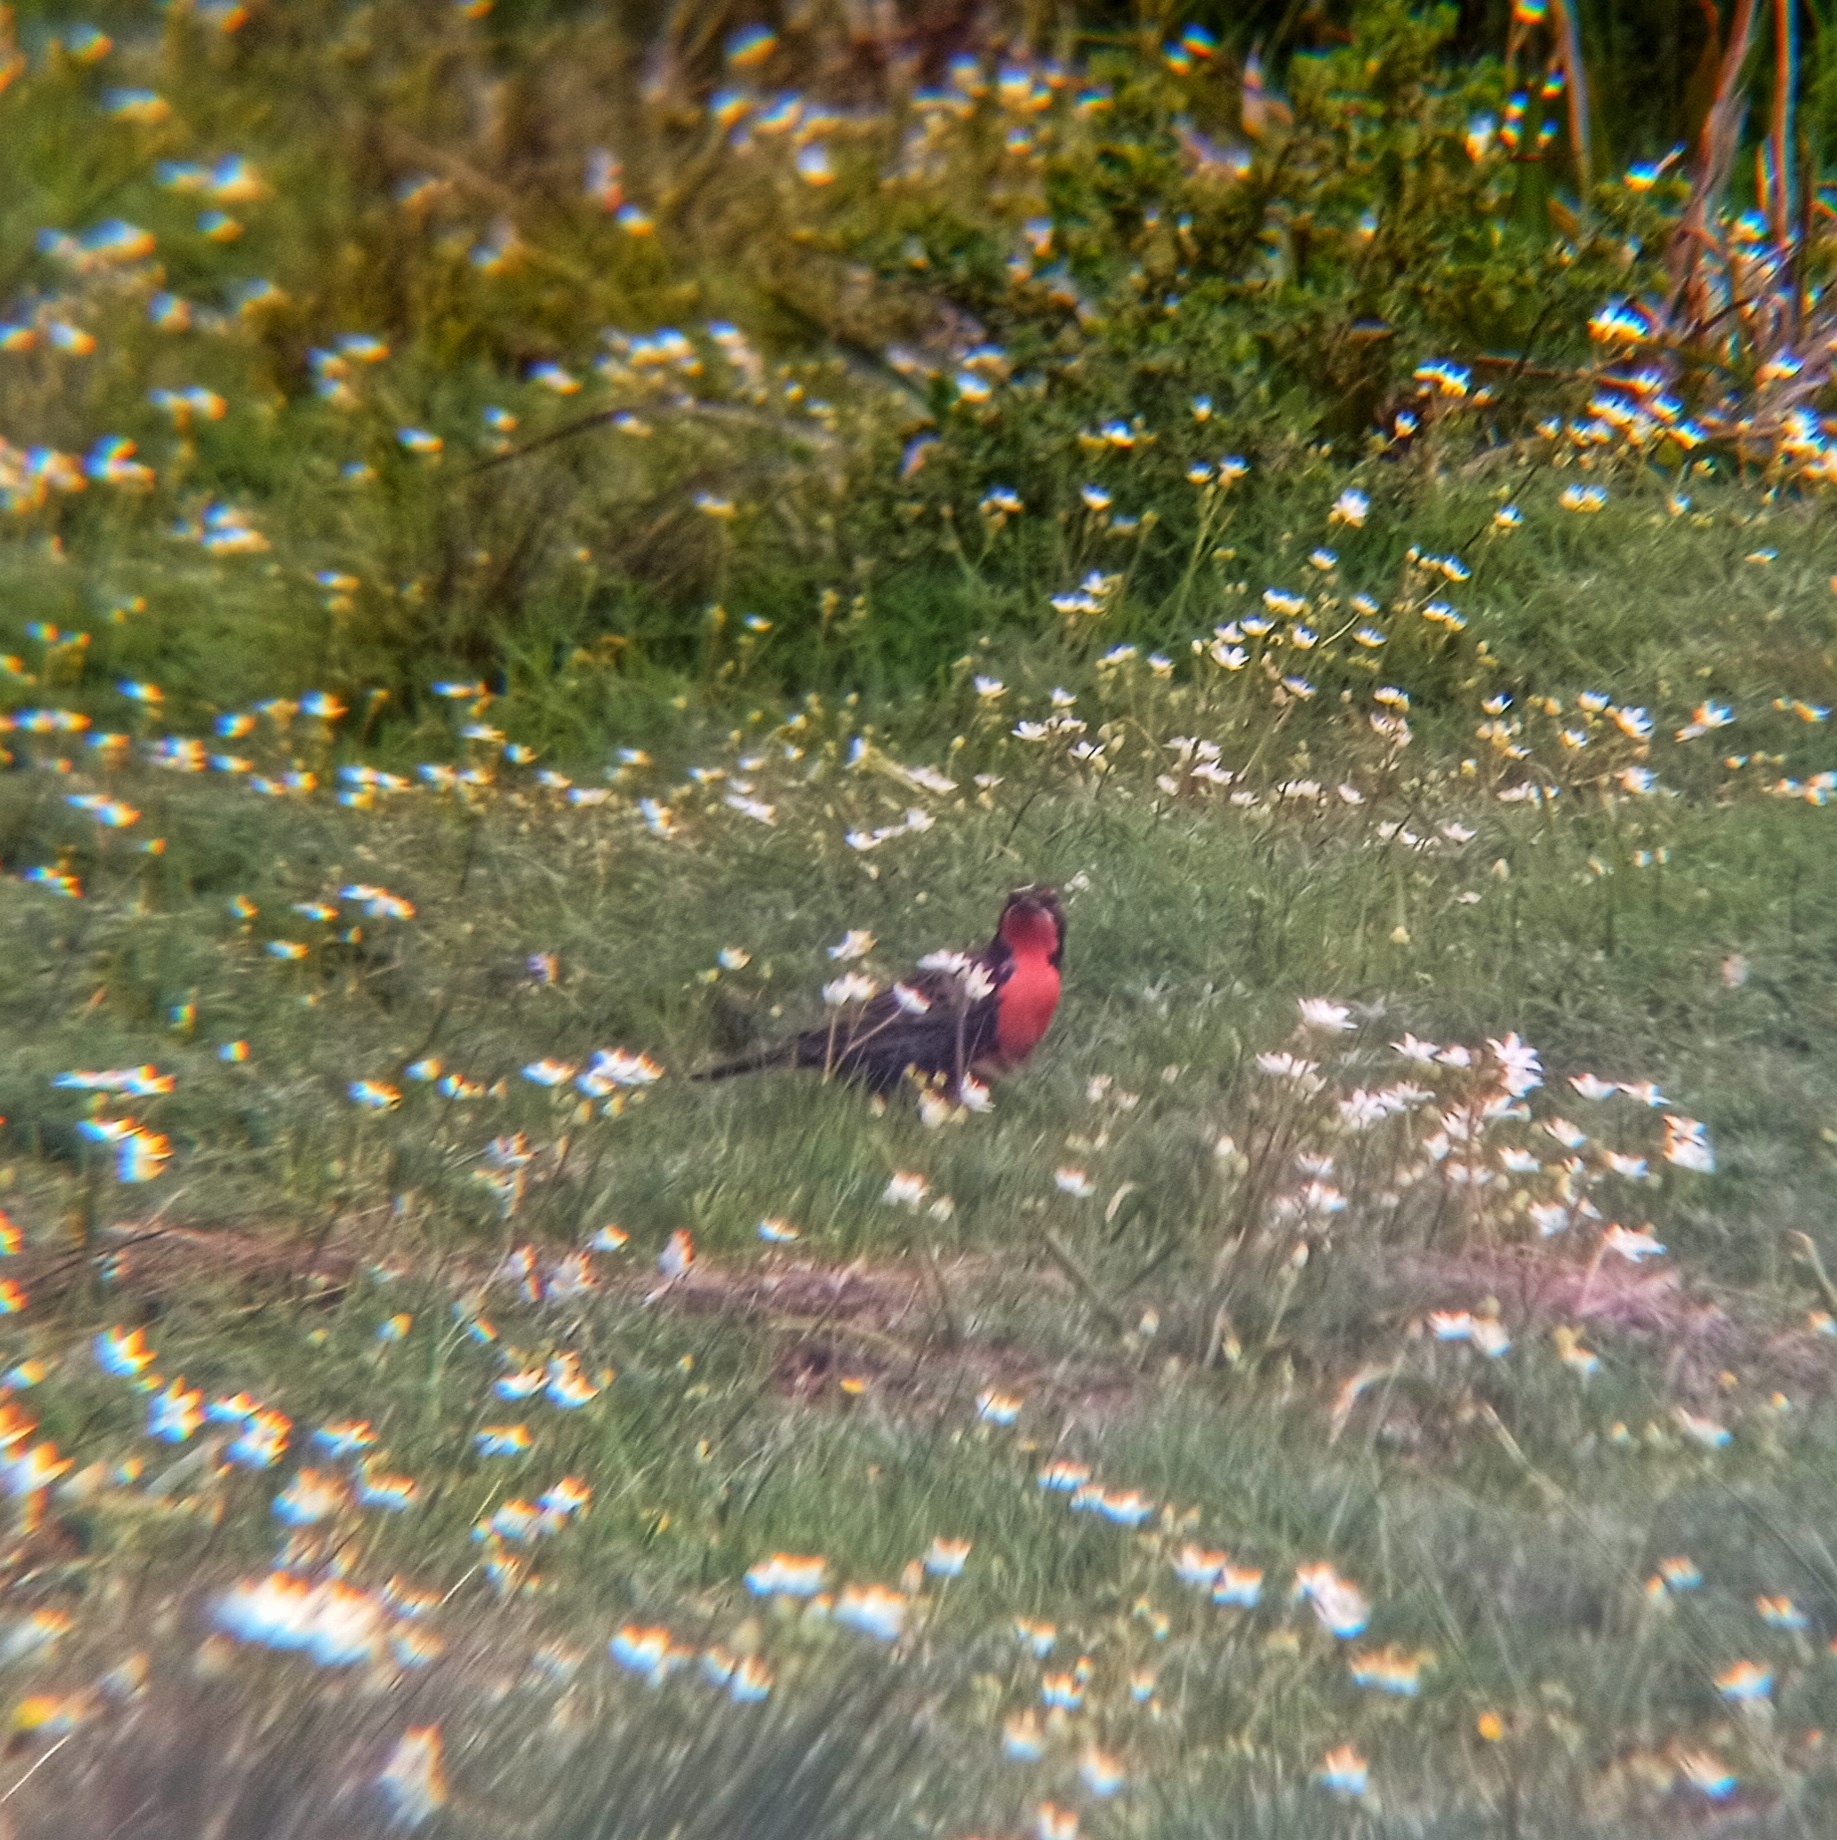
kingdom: Animalia
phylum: Chordata
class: Aves
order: Passeriformes
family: Icteridae
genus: Sturnella
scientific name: Sturnella loyca
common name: Long-tailed meadowlark
